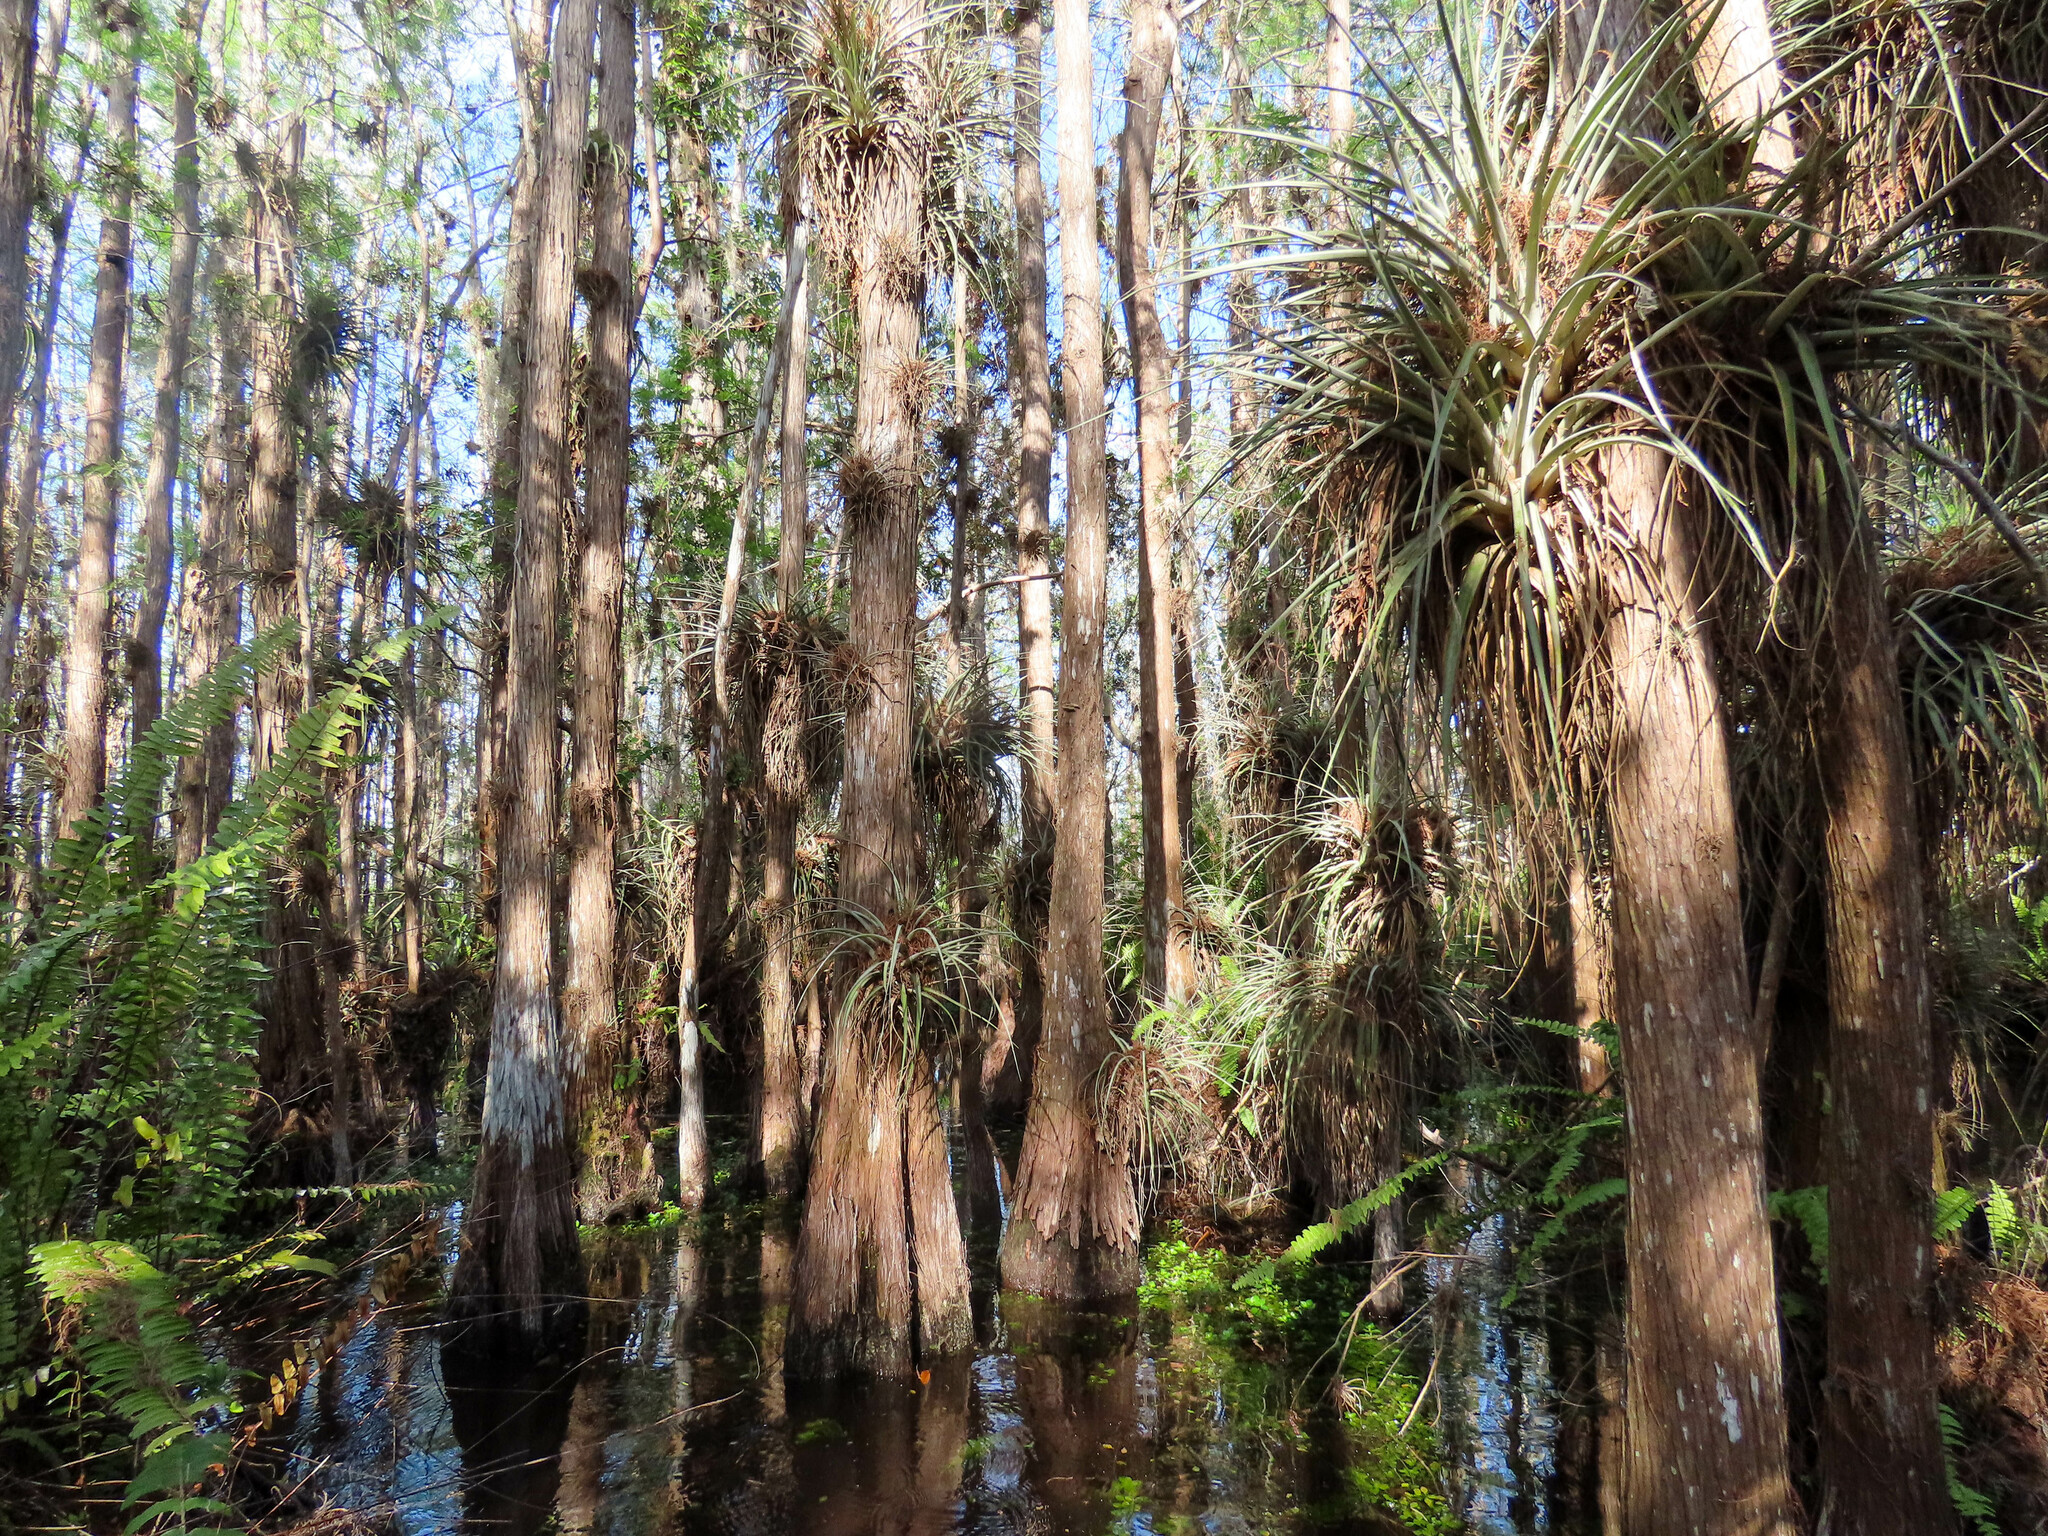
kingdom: Plantae
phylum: Tracheophyta
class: Liliopsida
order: Poales
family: Bromeliaceae
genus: Tillandsia
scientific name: Tillandsia fasciculata
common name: Giant airplant
